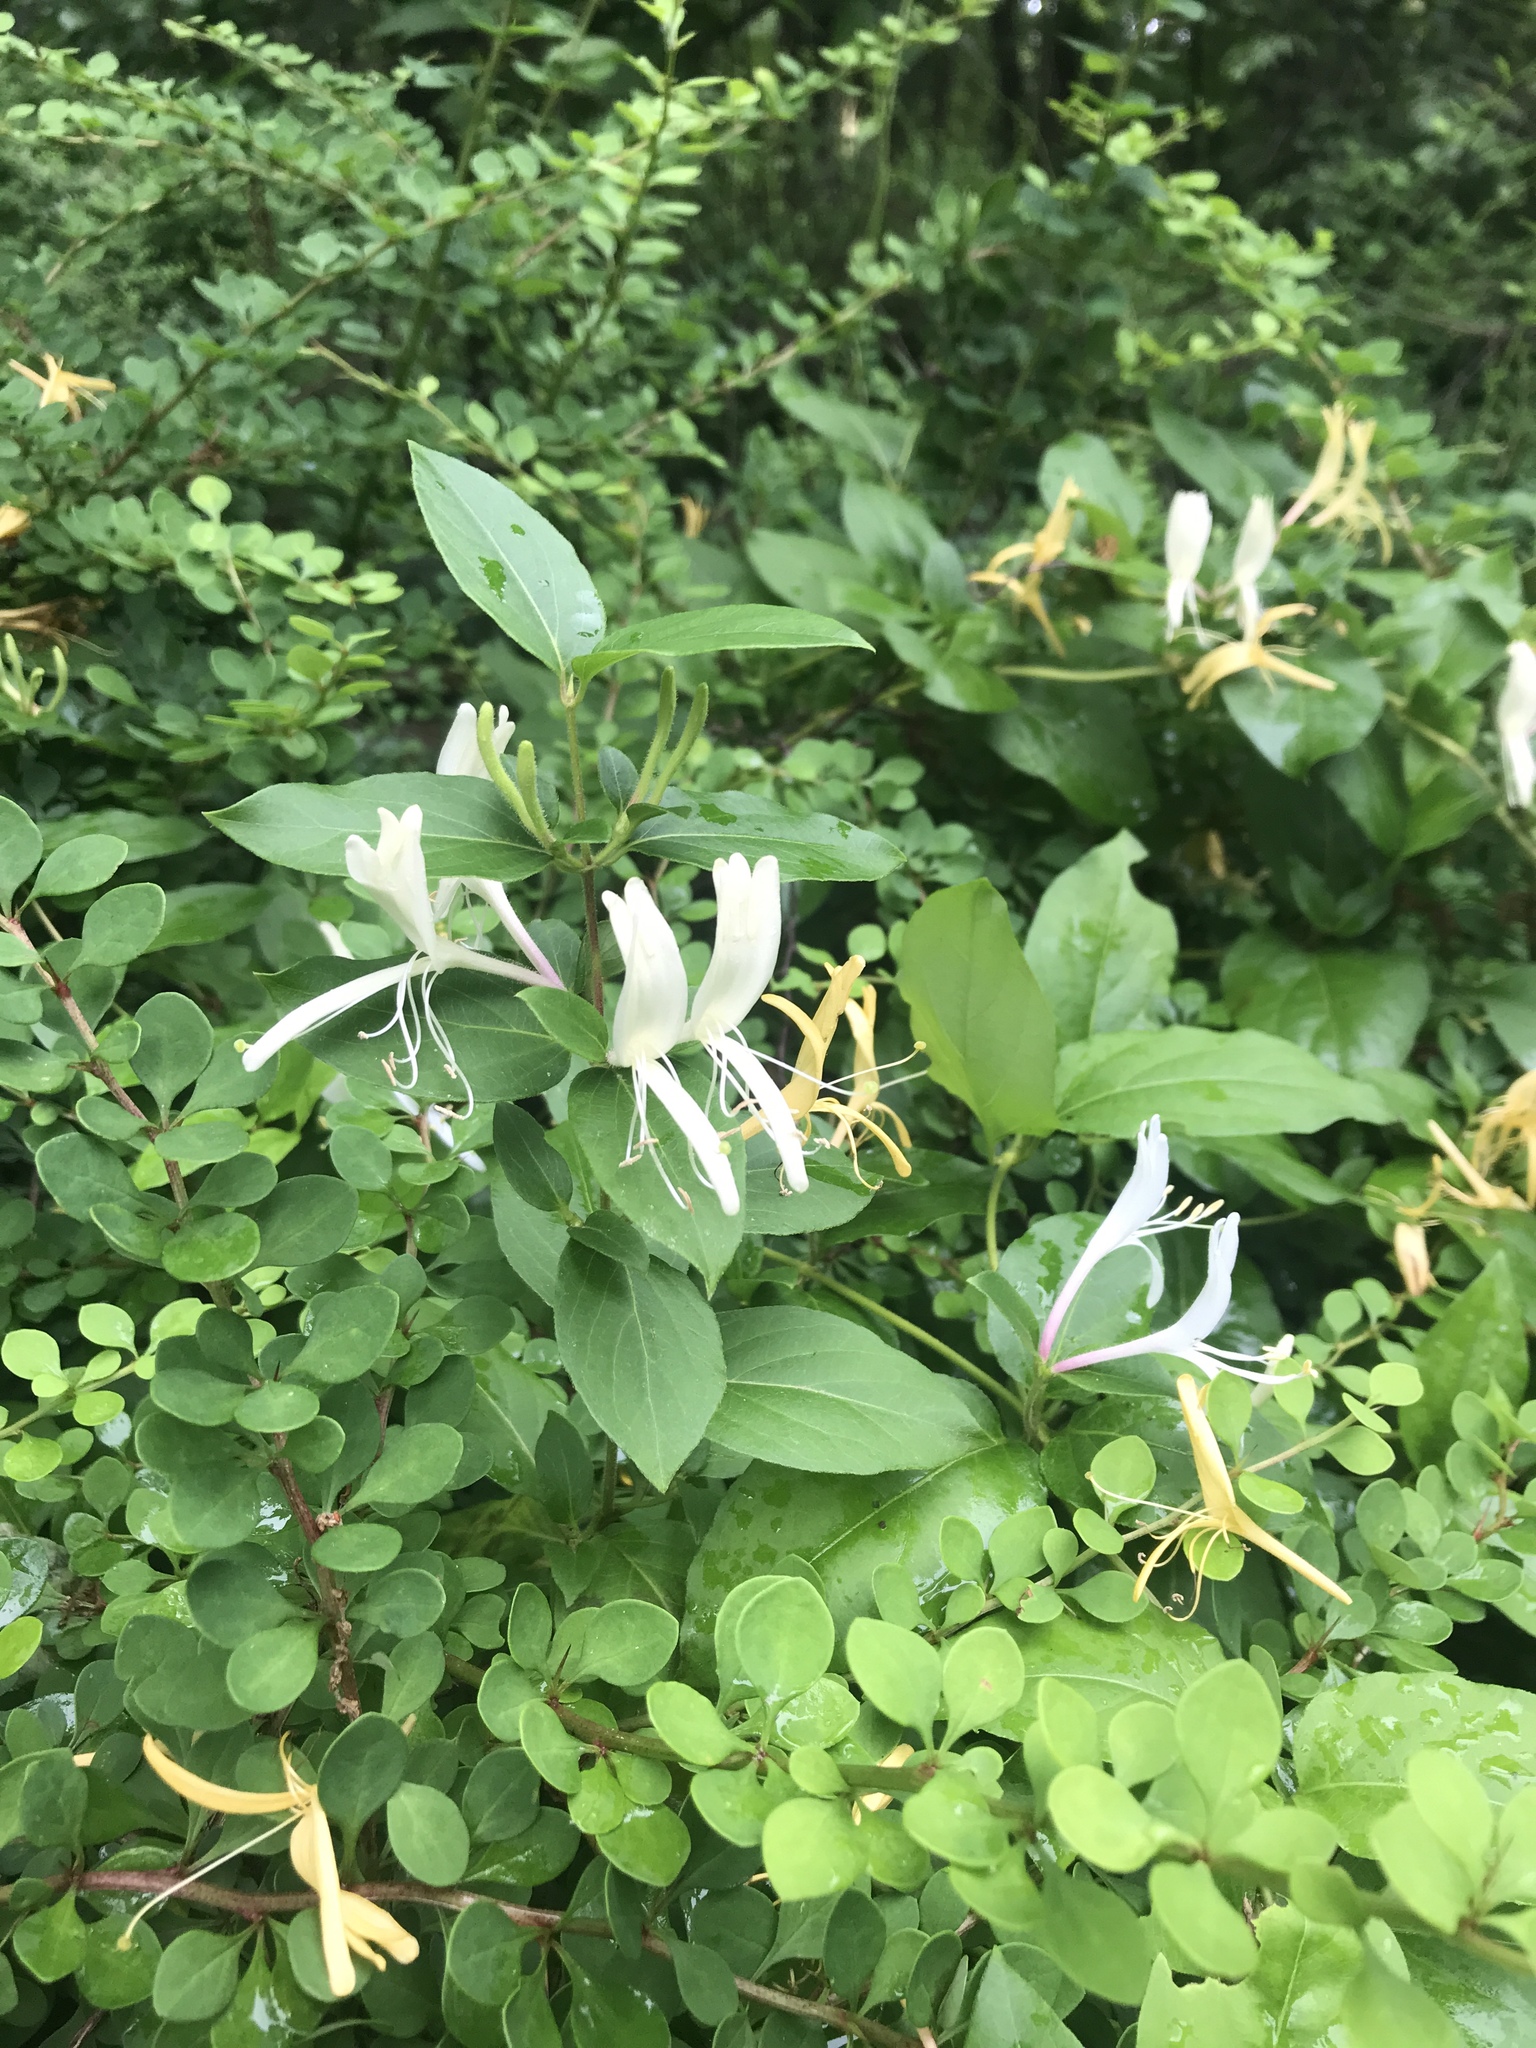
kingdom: Plantae
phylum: Tracheophyta
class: Magnoliopsida
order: Dipsacales
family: Caprifoliaceae
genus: Lonicera
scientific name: Lonicera japonica
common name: Japanese honeysuckle
